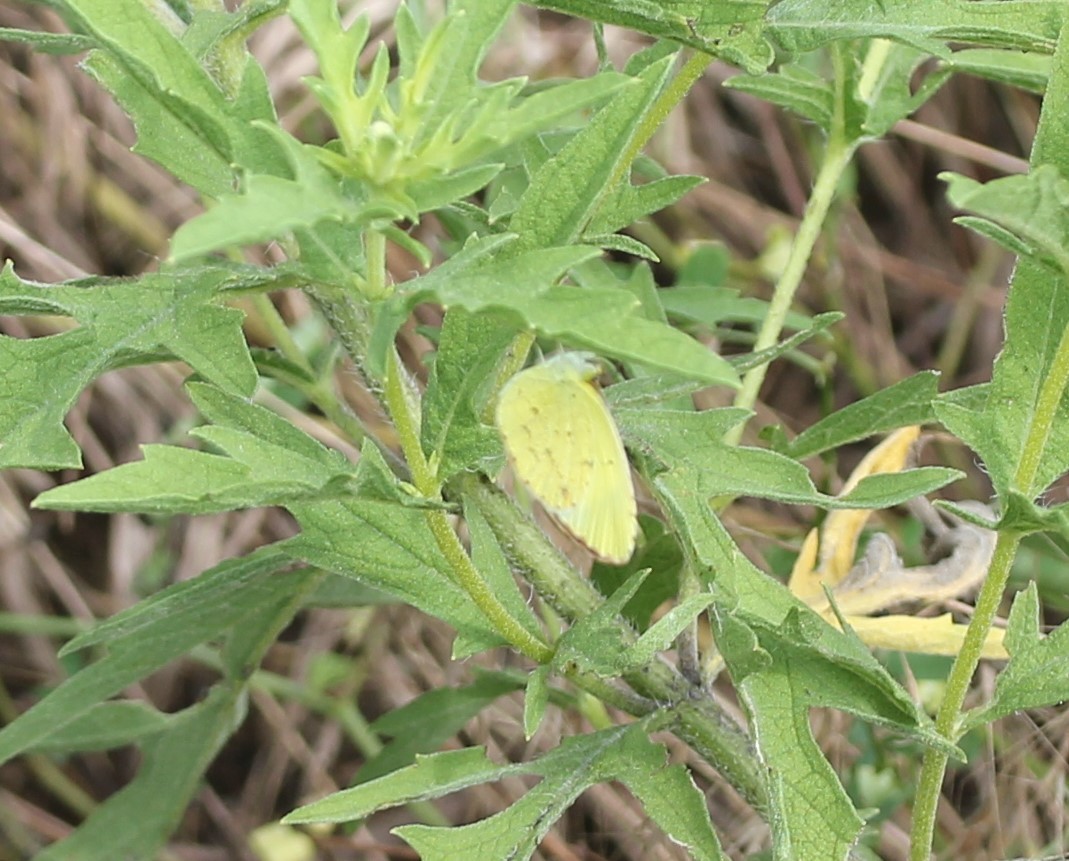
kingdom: Animalia
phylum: Arthropoda
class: Insecta
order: Lepidoptera
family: Pieridae
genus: Pyrisitia
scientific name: Pyrisitia lisa
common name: Little yellow
